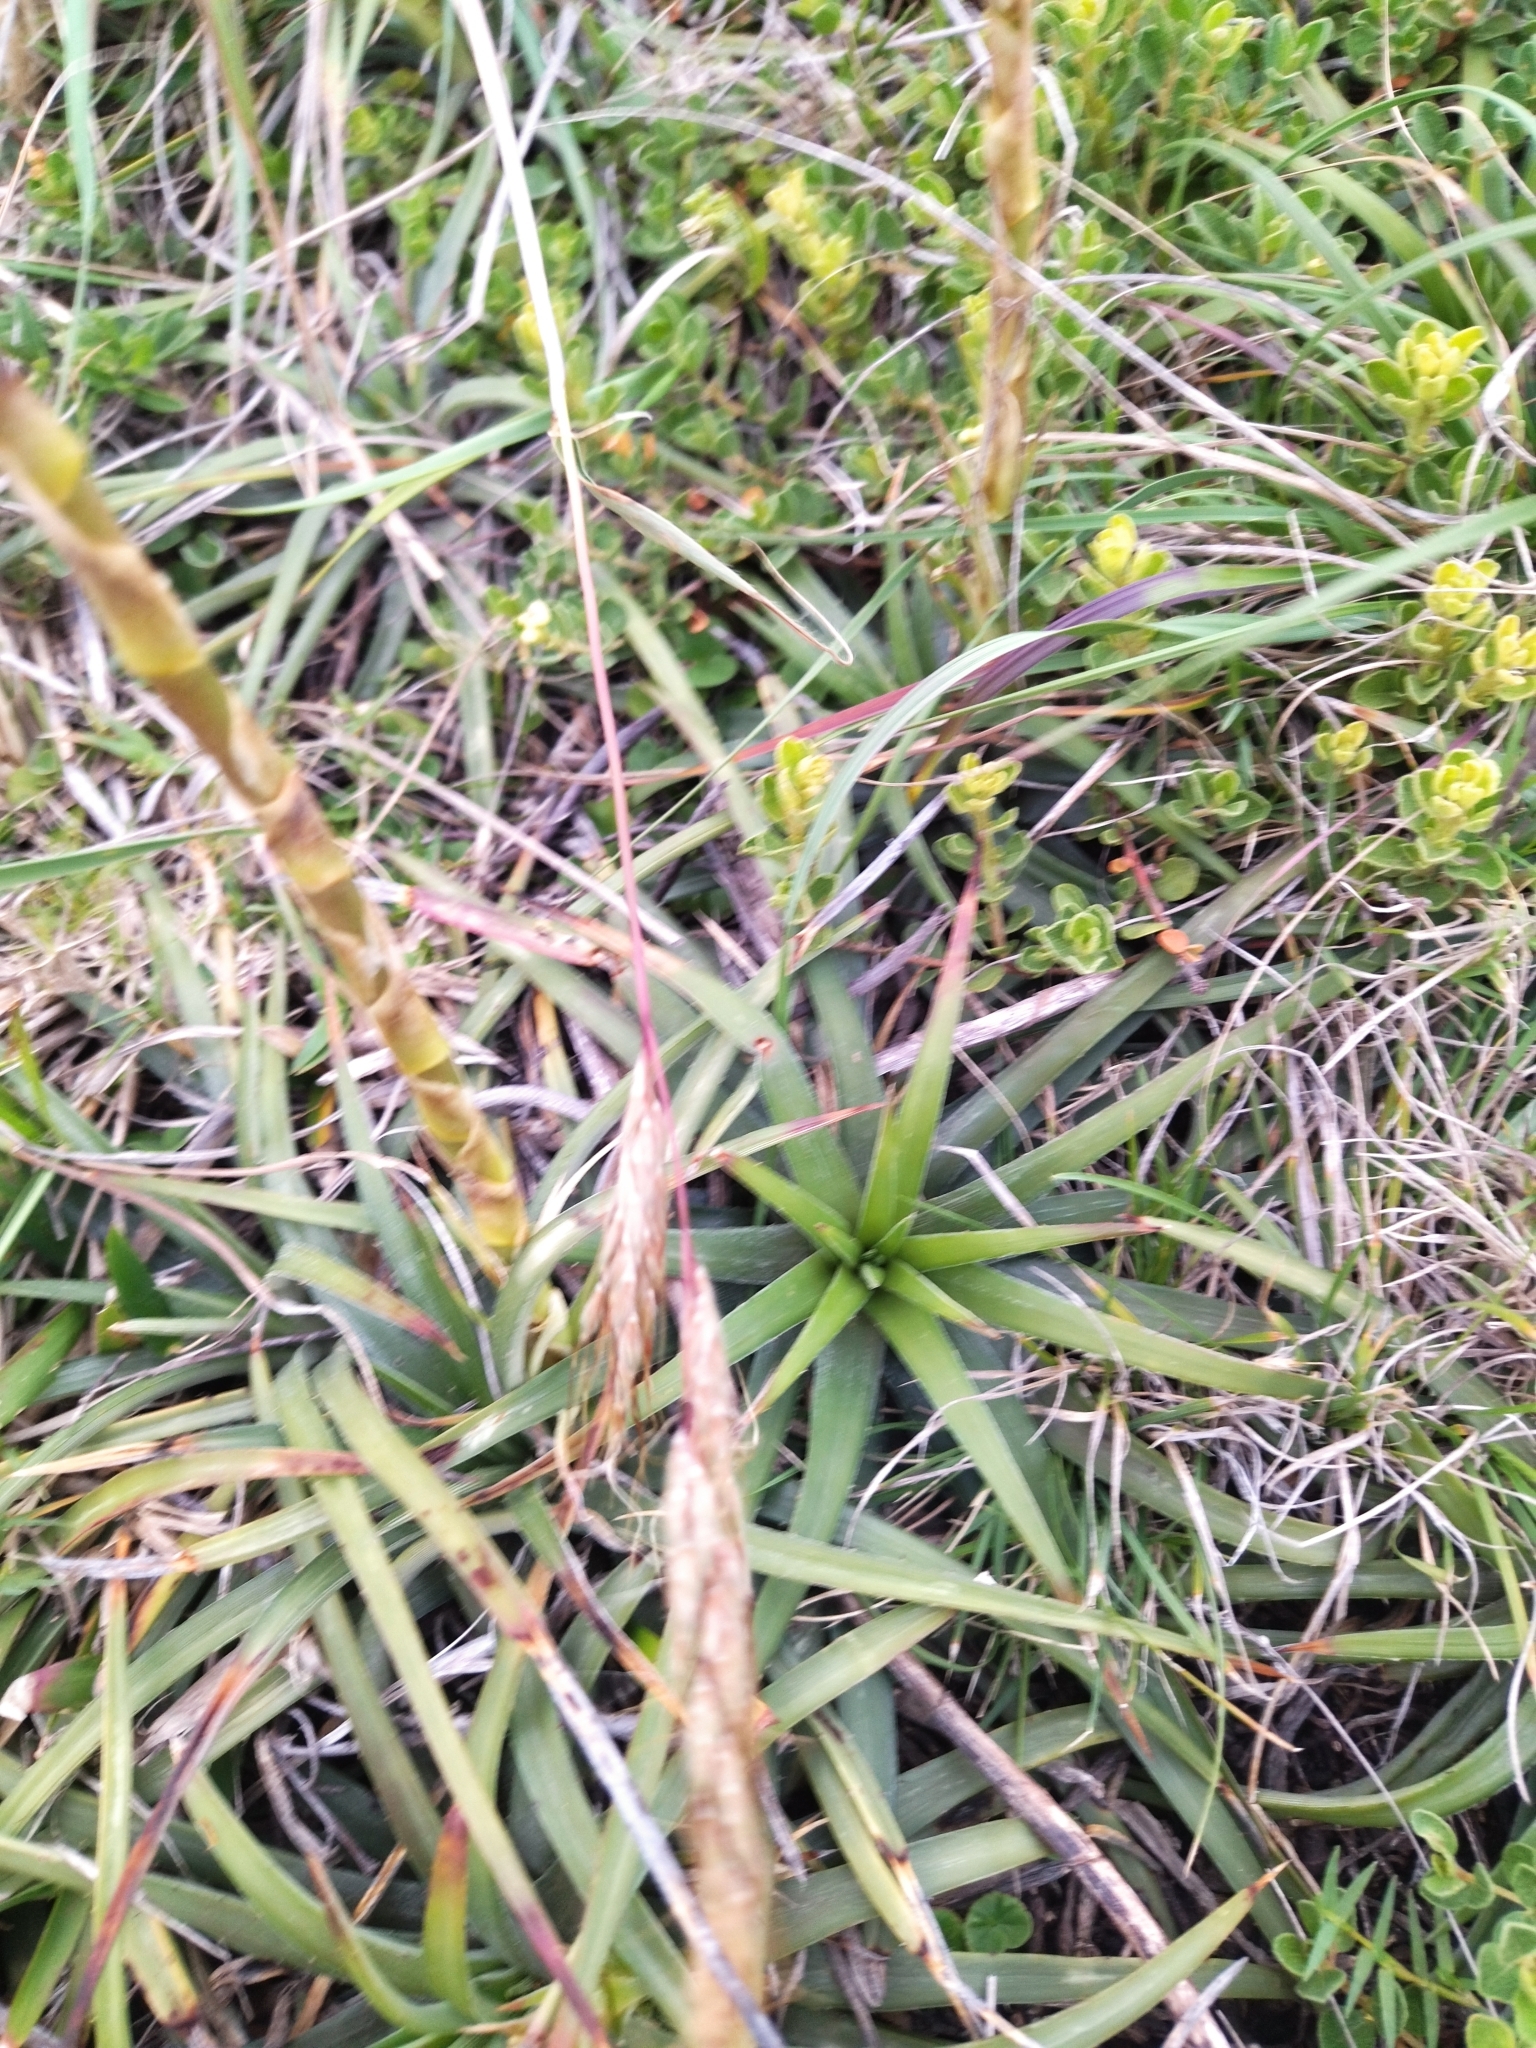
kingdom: Plantae
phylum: Tracheophyta
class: Liliopsida
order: Poales
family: Bromeliaceae
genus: Dyckia
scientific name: Dyckia remotiflora
